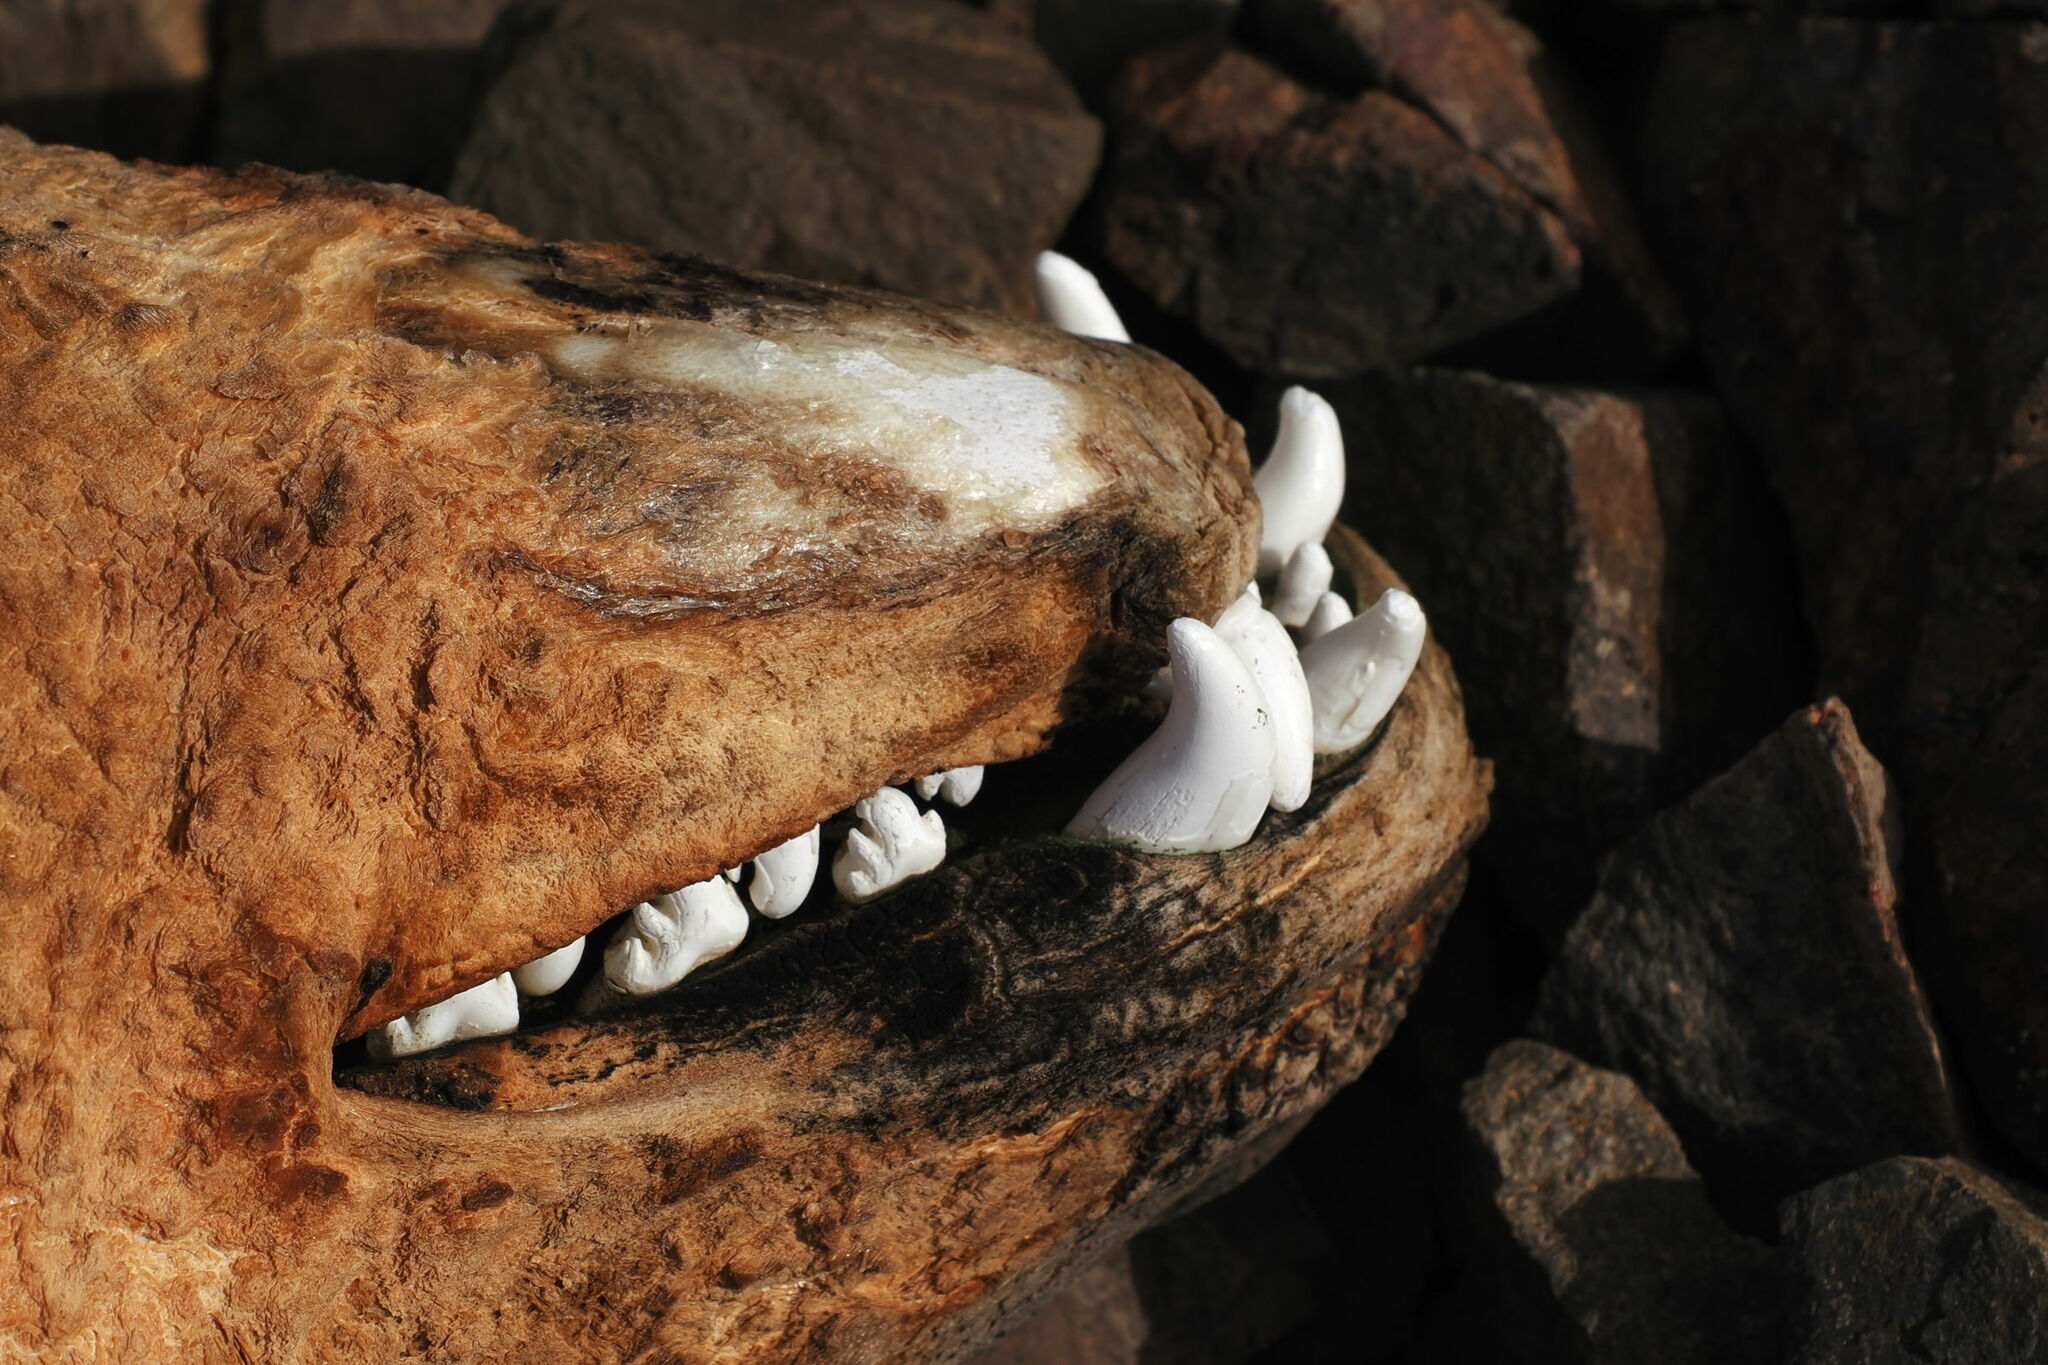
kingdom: Animalia
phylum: Chordata
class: Mammalia
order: Carnivora
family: Phocidae
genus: Lobodon
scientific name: Lobodon carcinophaga
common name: Crabeater seal
